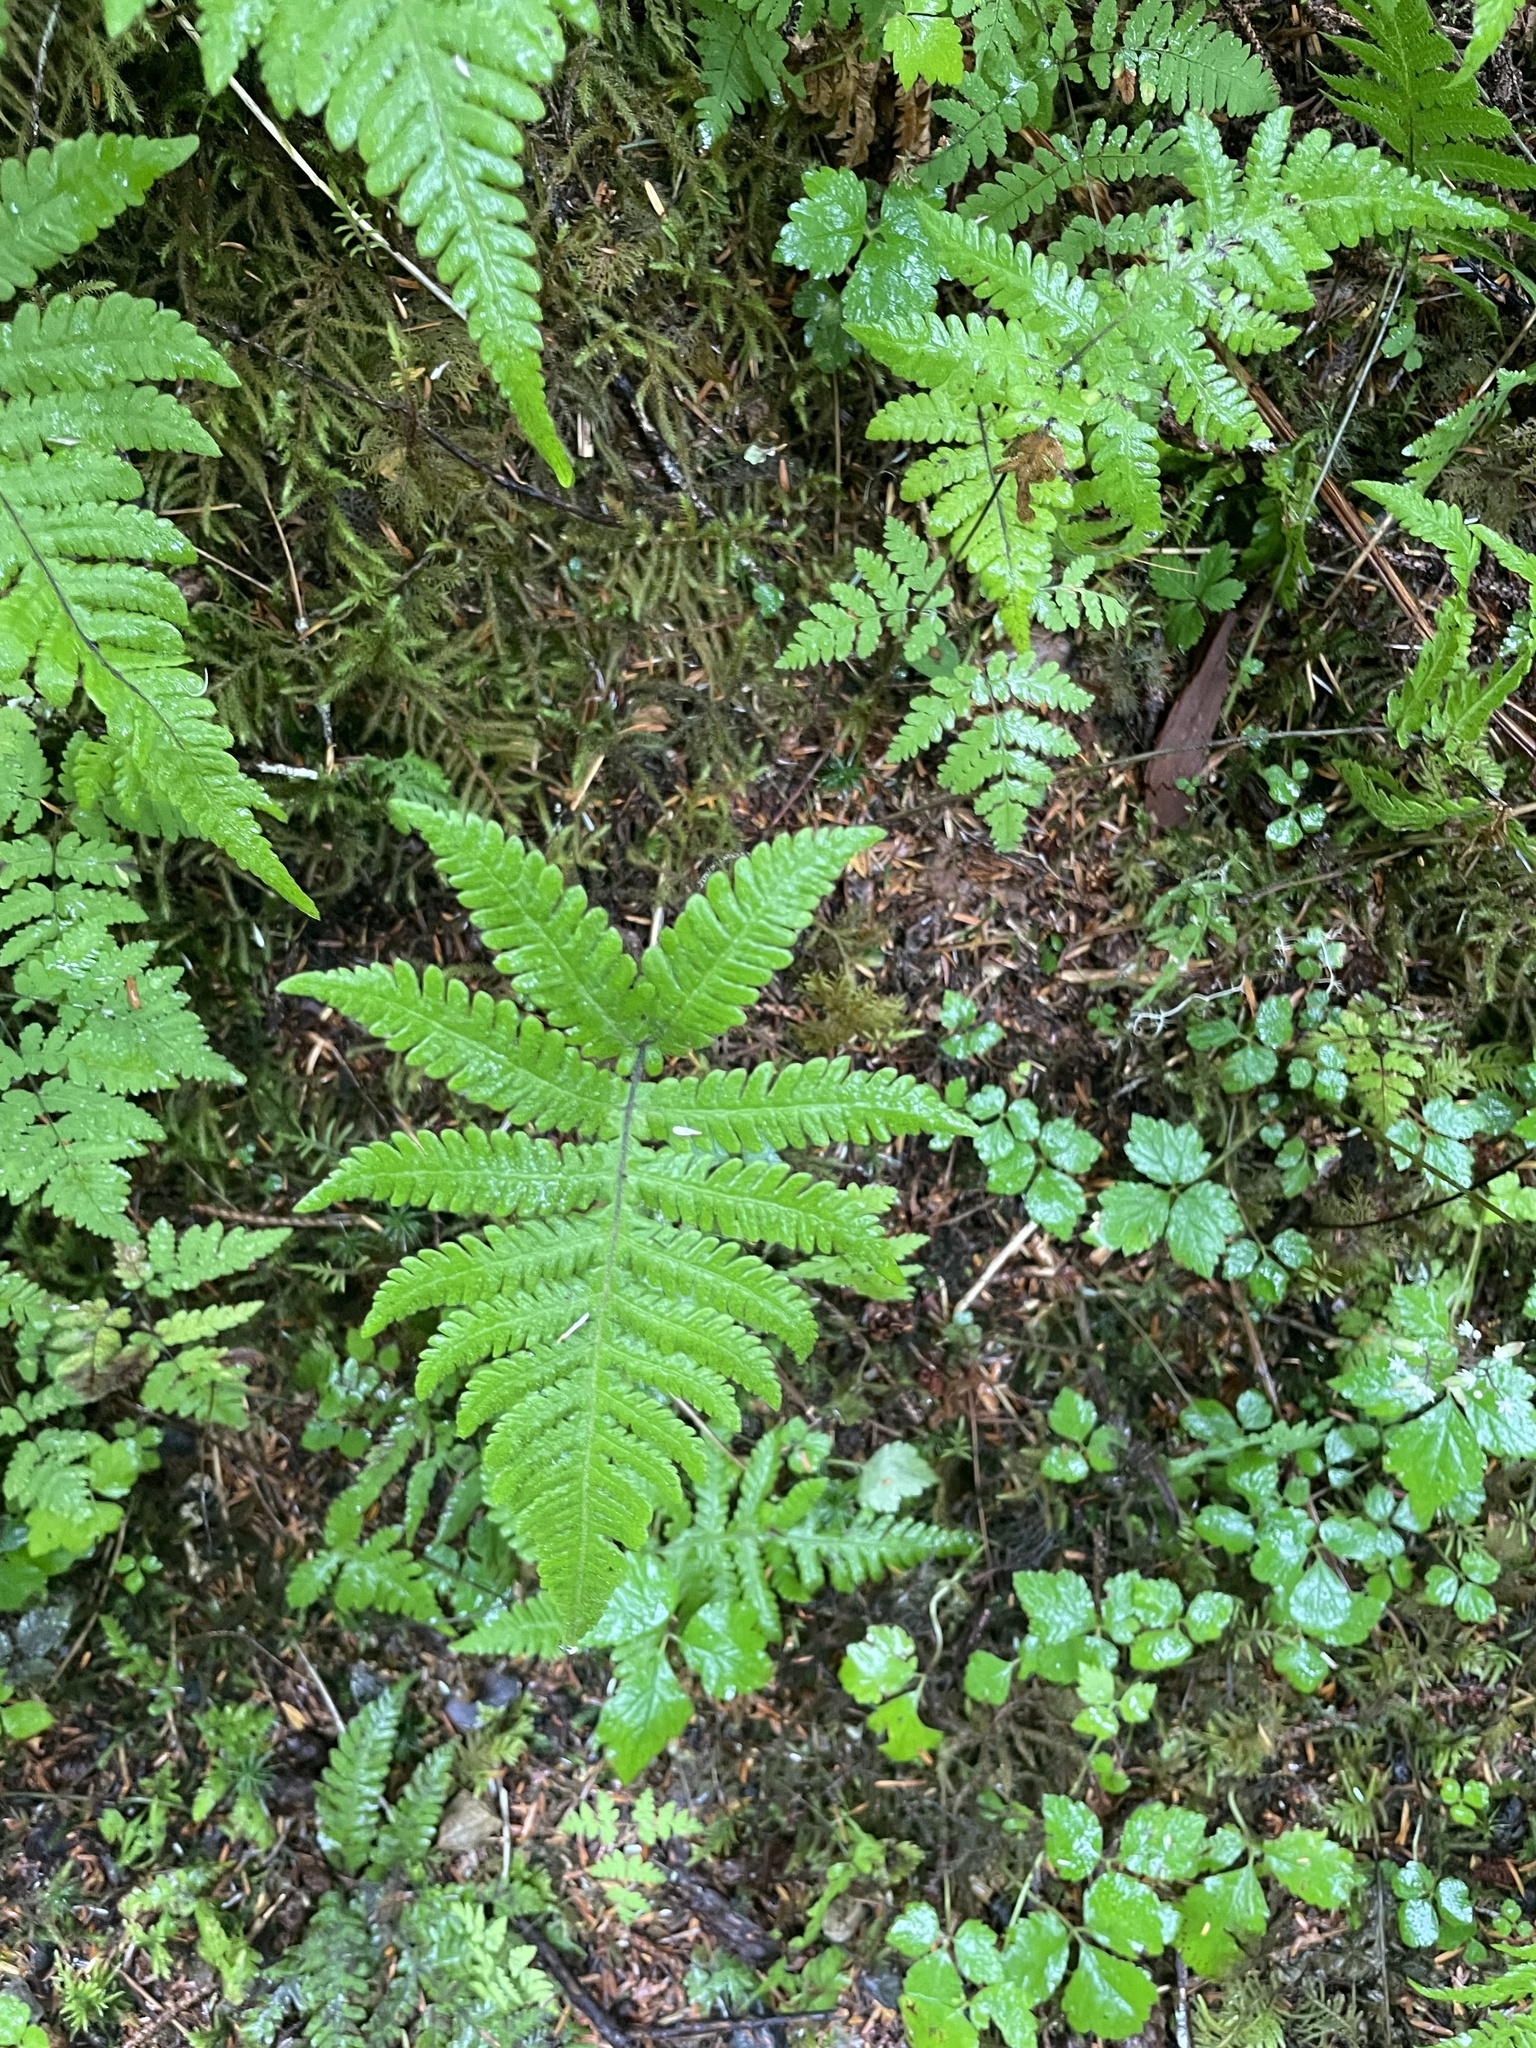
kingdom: Plantae
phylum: Tracheophyta
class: Polypodiopsida
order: Polypodiales
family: Thelypteridaceae
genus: Phegopteris
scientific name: Phegopteris connectilis
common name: Beech fern
